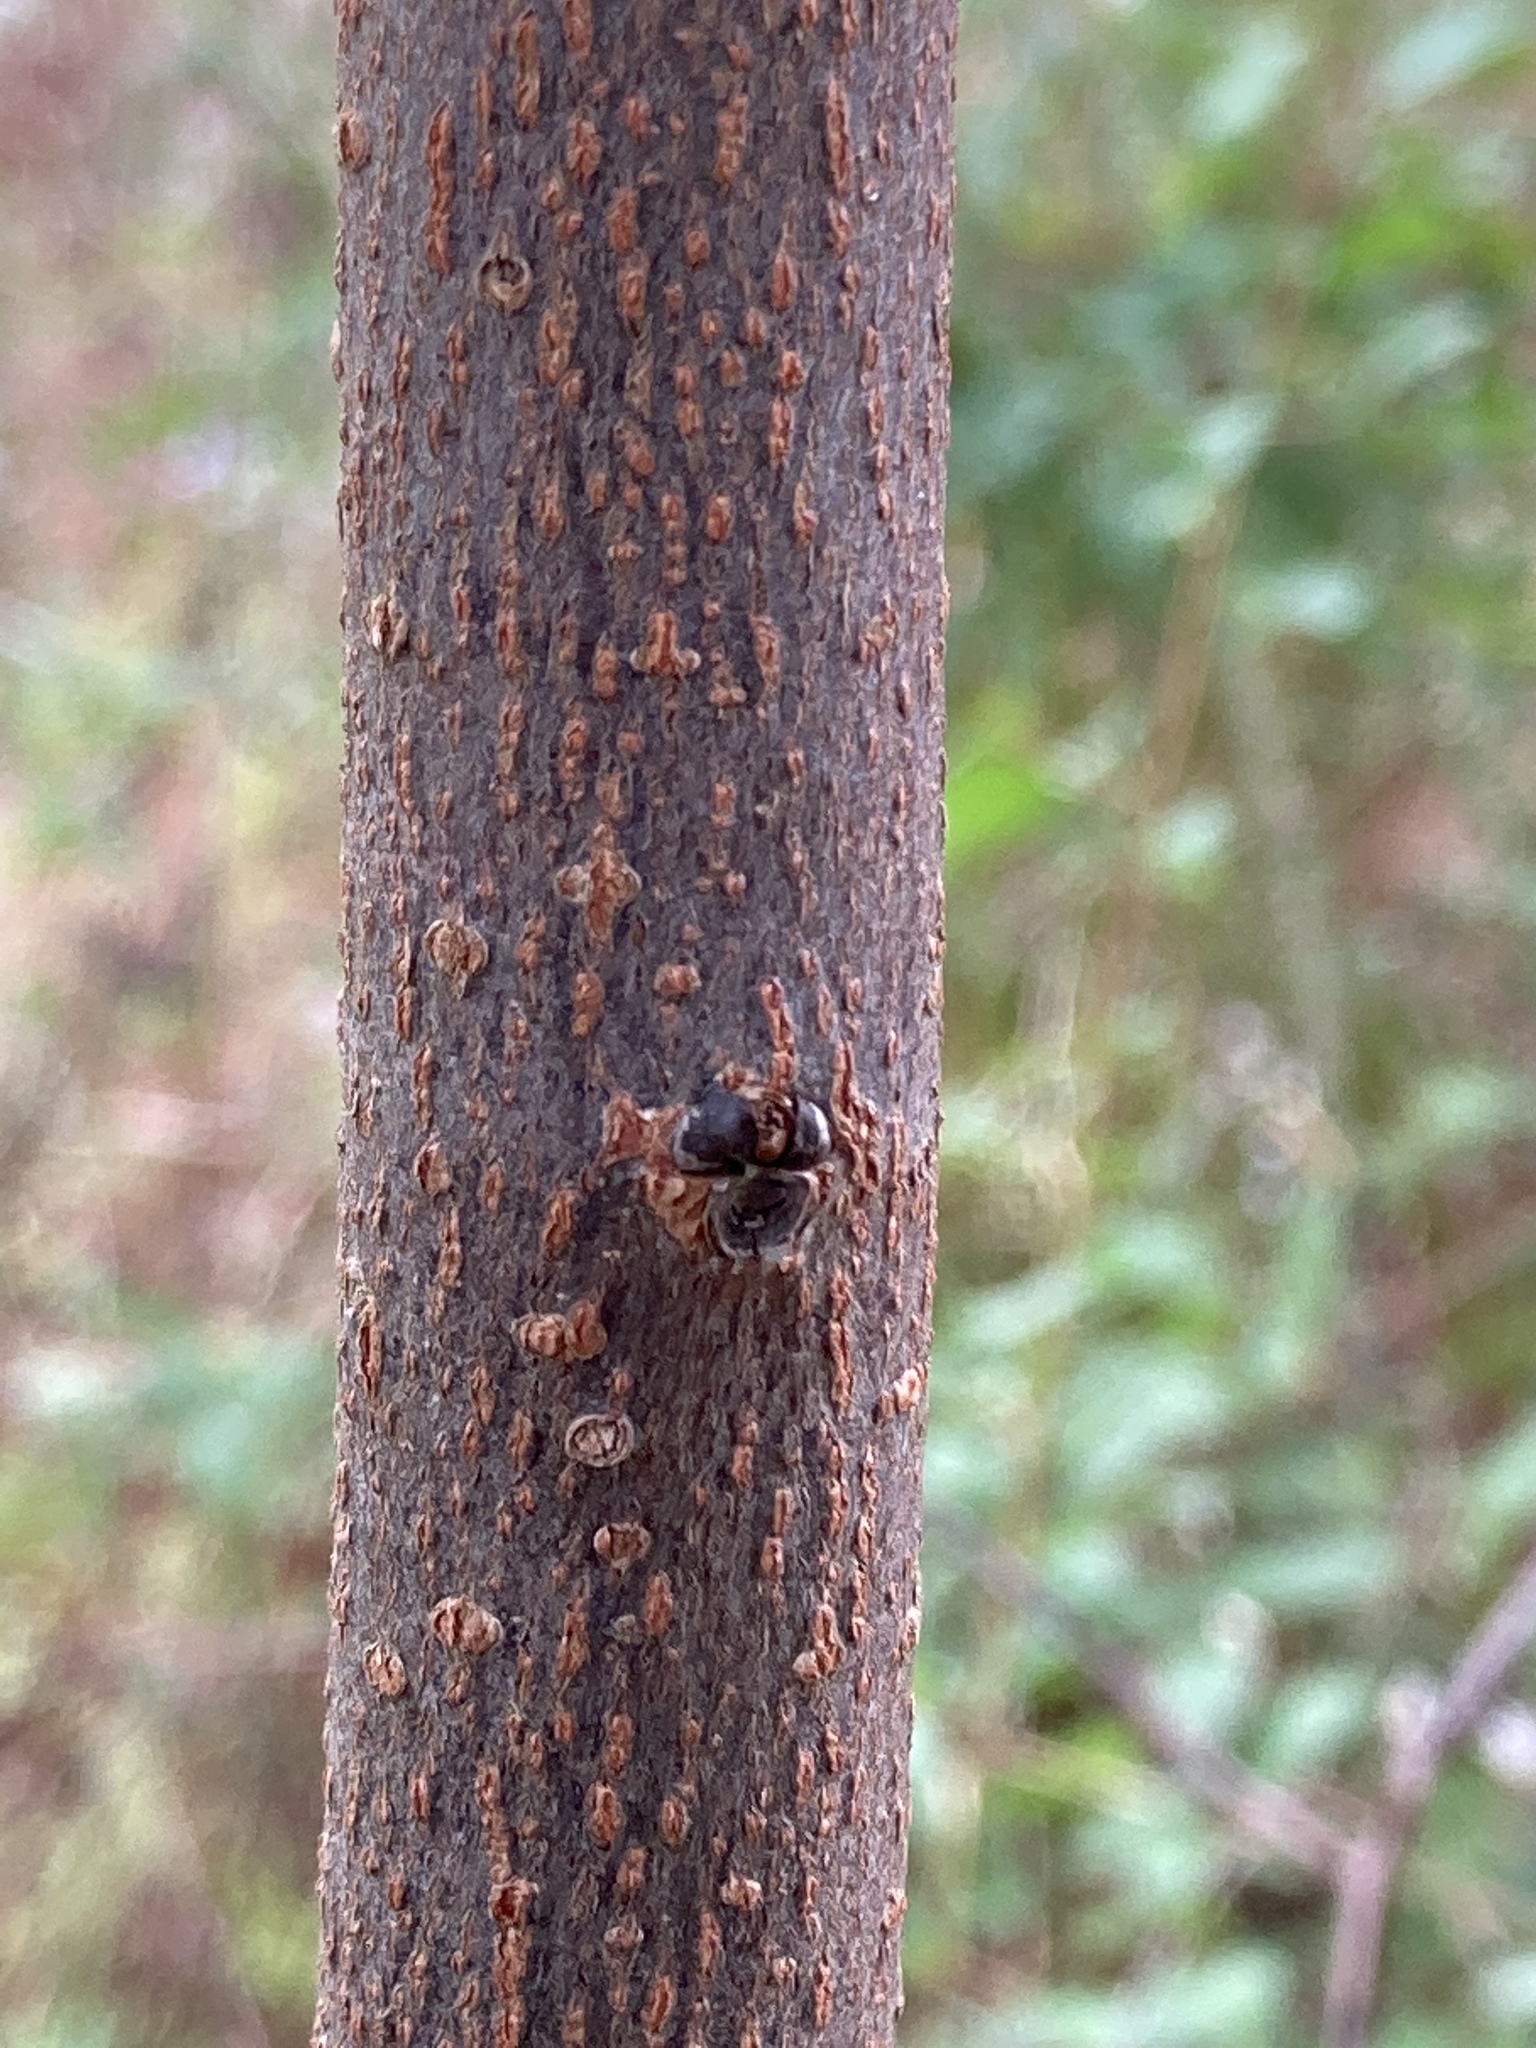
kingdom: Plantae
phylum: Tracheophyta
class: Magnoliopsida
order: Ericales
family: Ebenaceae
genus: Diospyros
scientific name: Diospyros virginiana
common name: Persimmon
